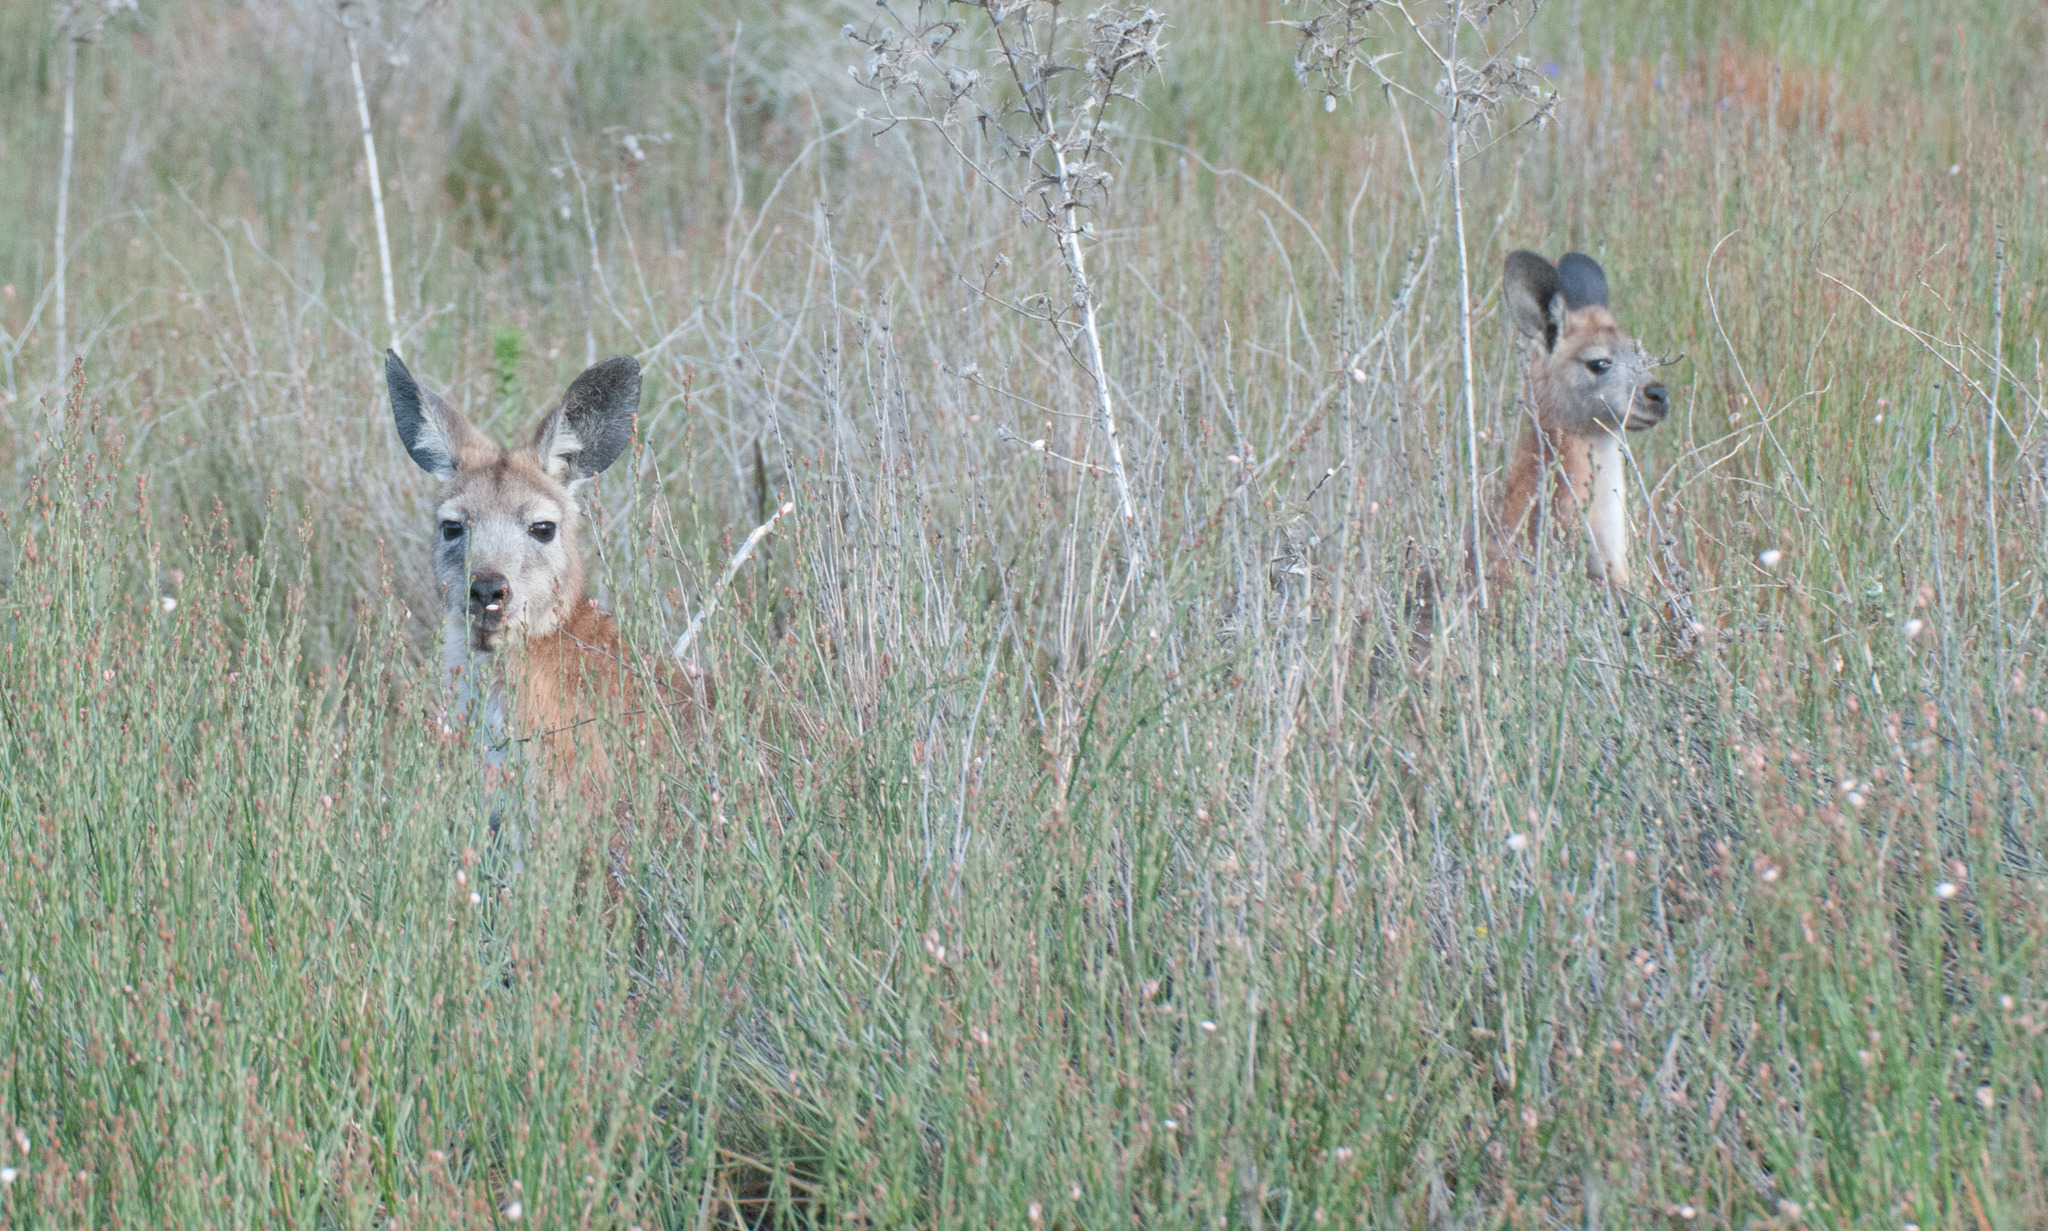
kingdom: Animalia
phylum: Chordata
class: Mammalia
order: Diprotodontia
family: Macropodidae
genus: Macropus
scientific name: Macropus robustus
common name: Eastern wallaroo
